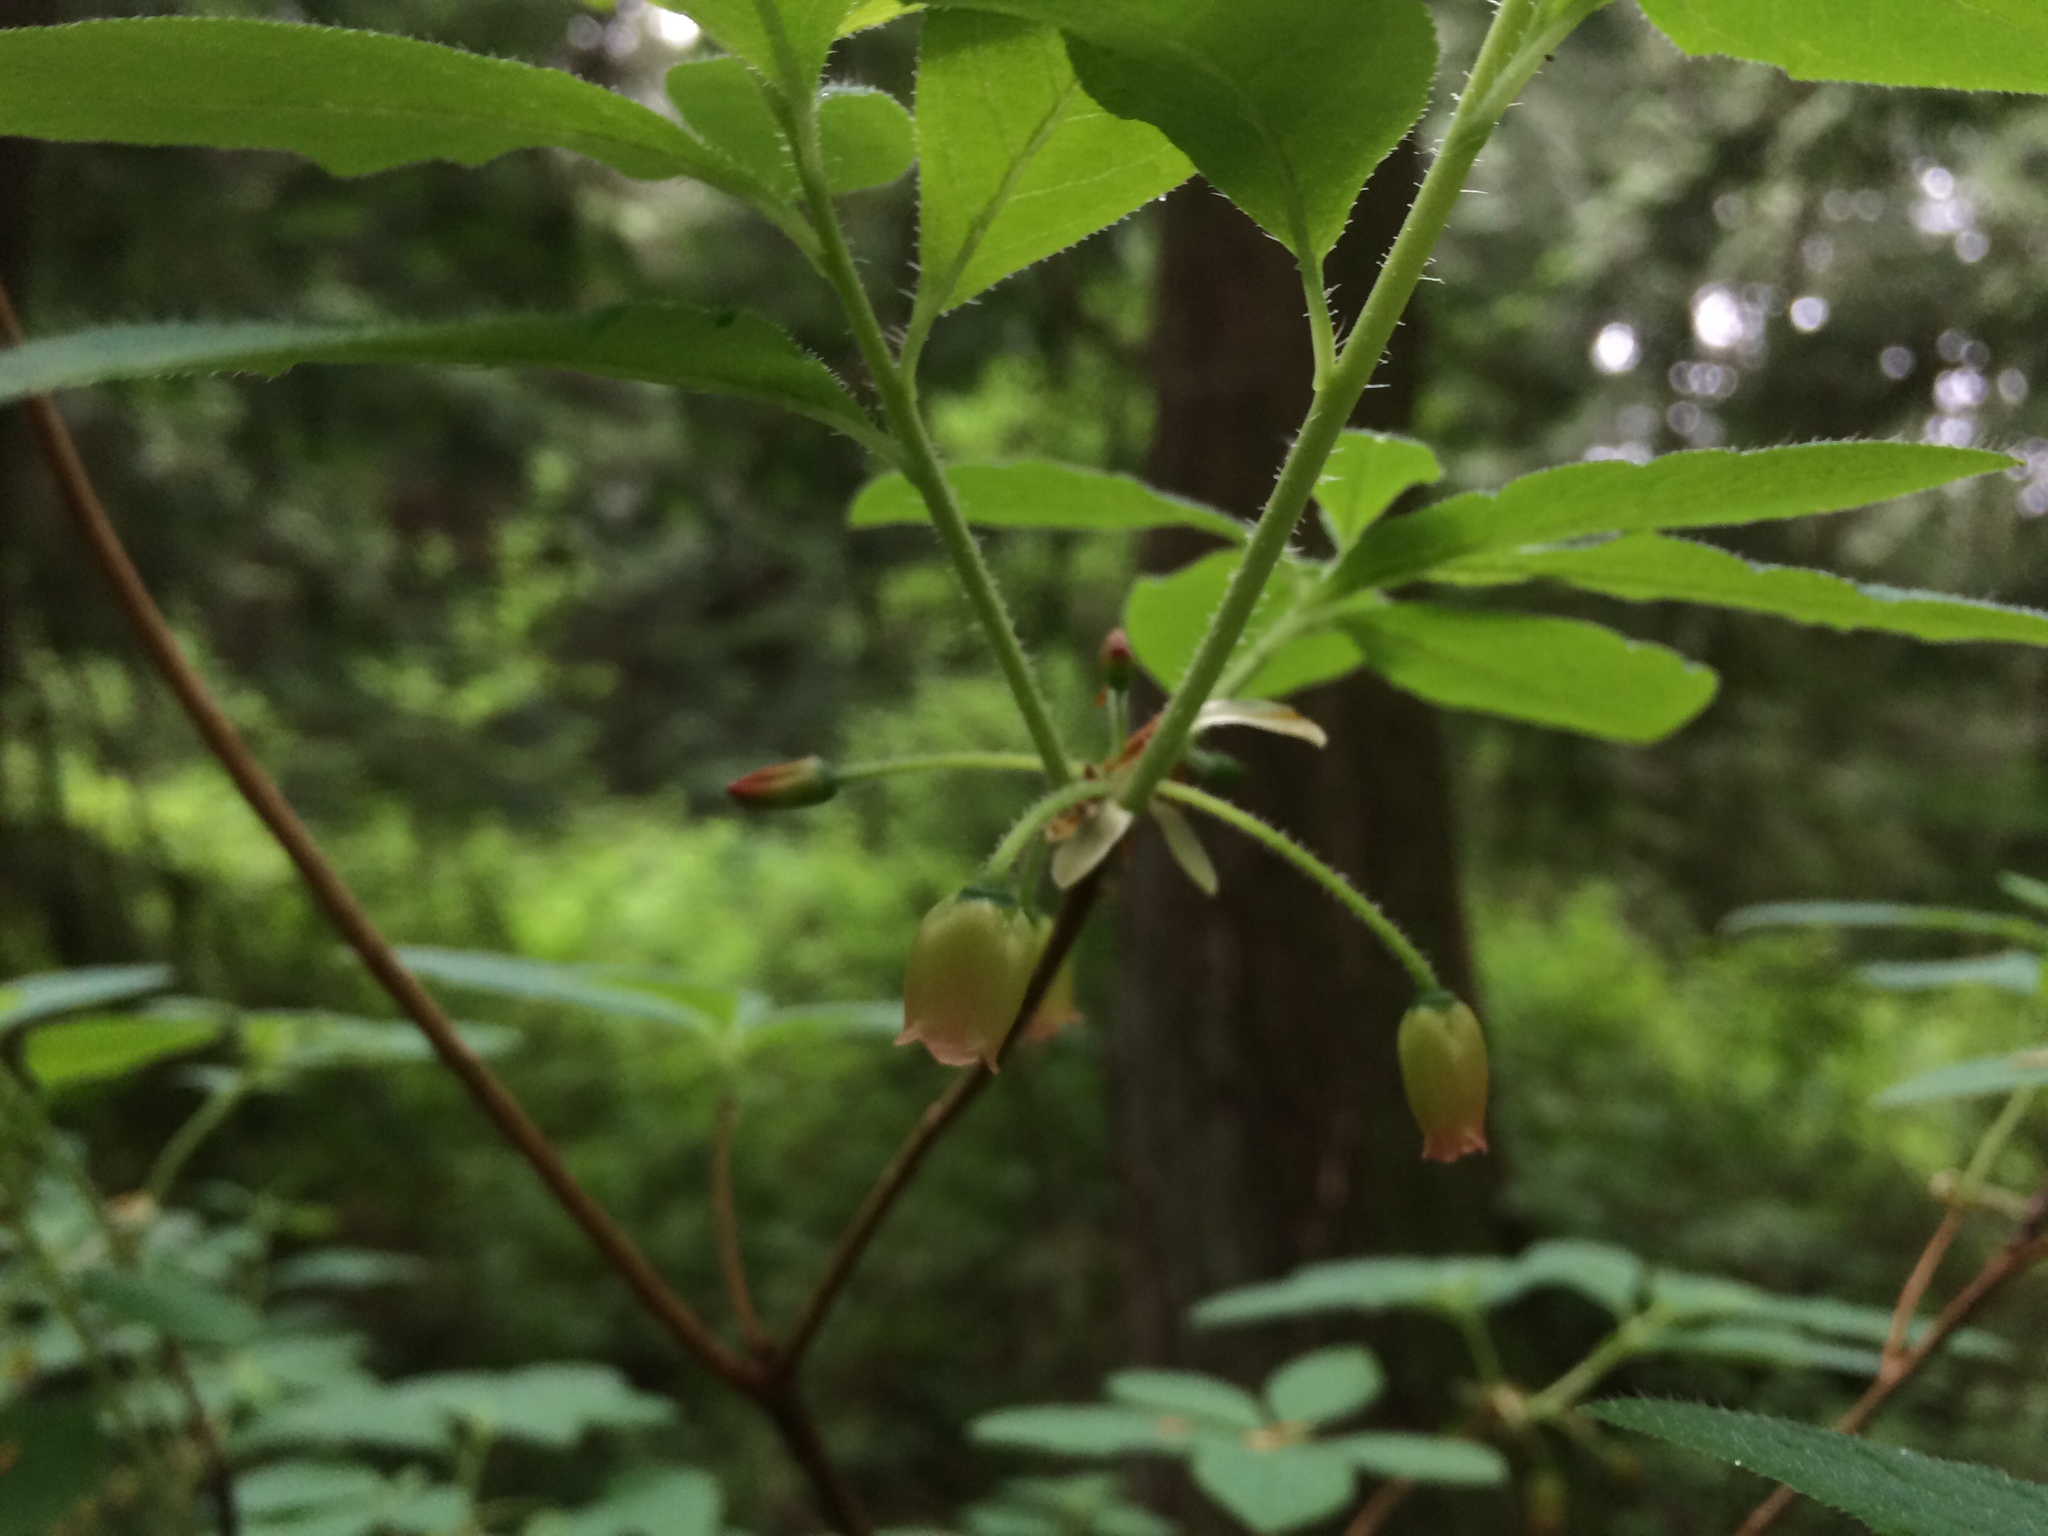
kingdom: Plantae
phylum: Tracheophyta
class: Magnoliopsida
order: Ericales
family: Ericaceae
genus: Rhododendron
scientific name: Rhododendron menziesii
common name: Pacific menziesia
